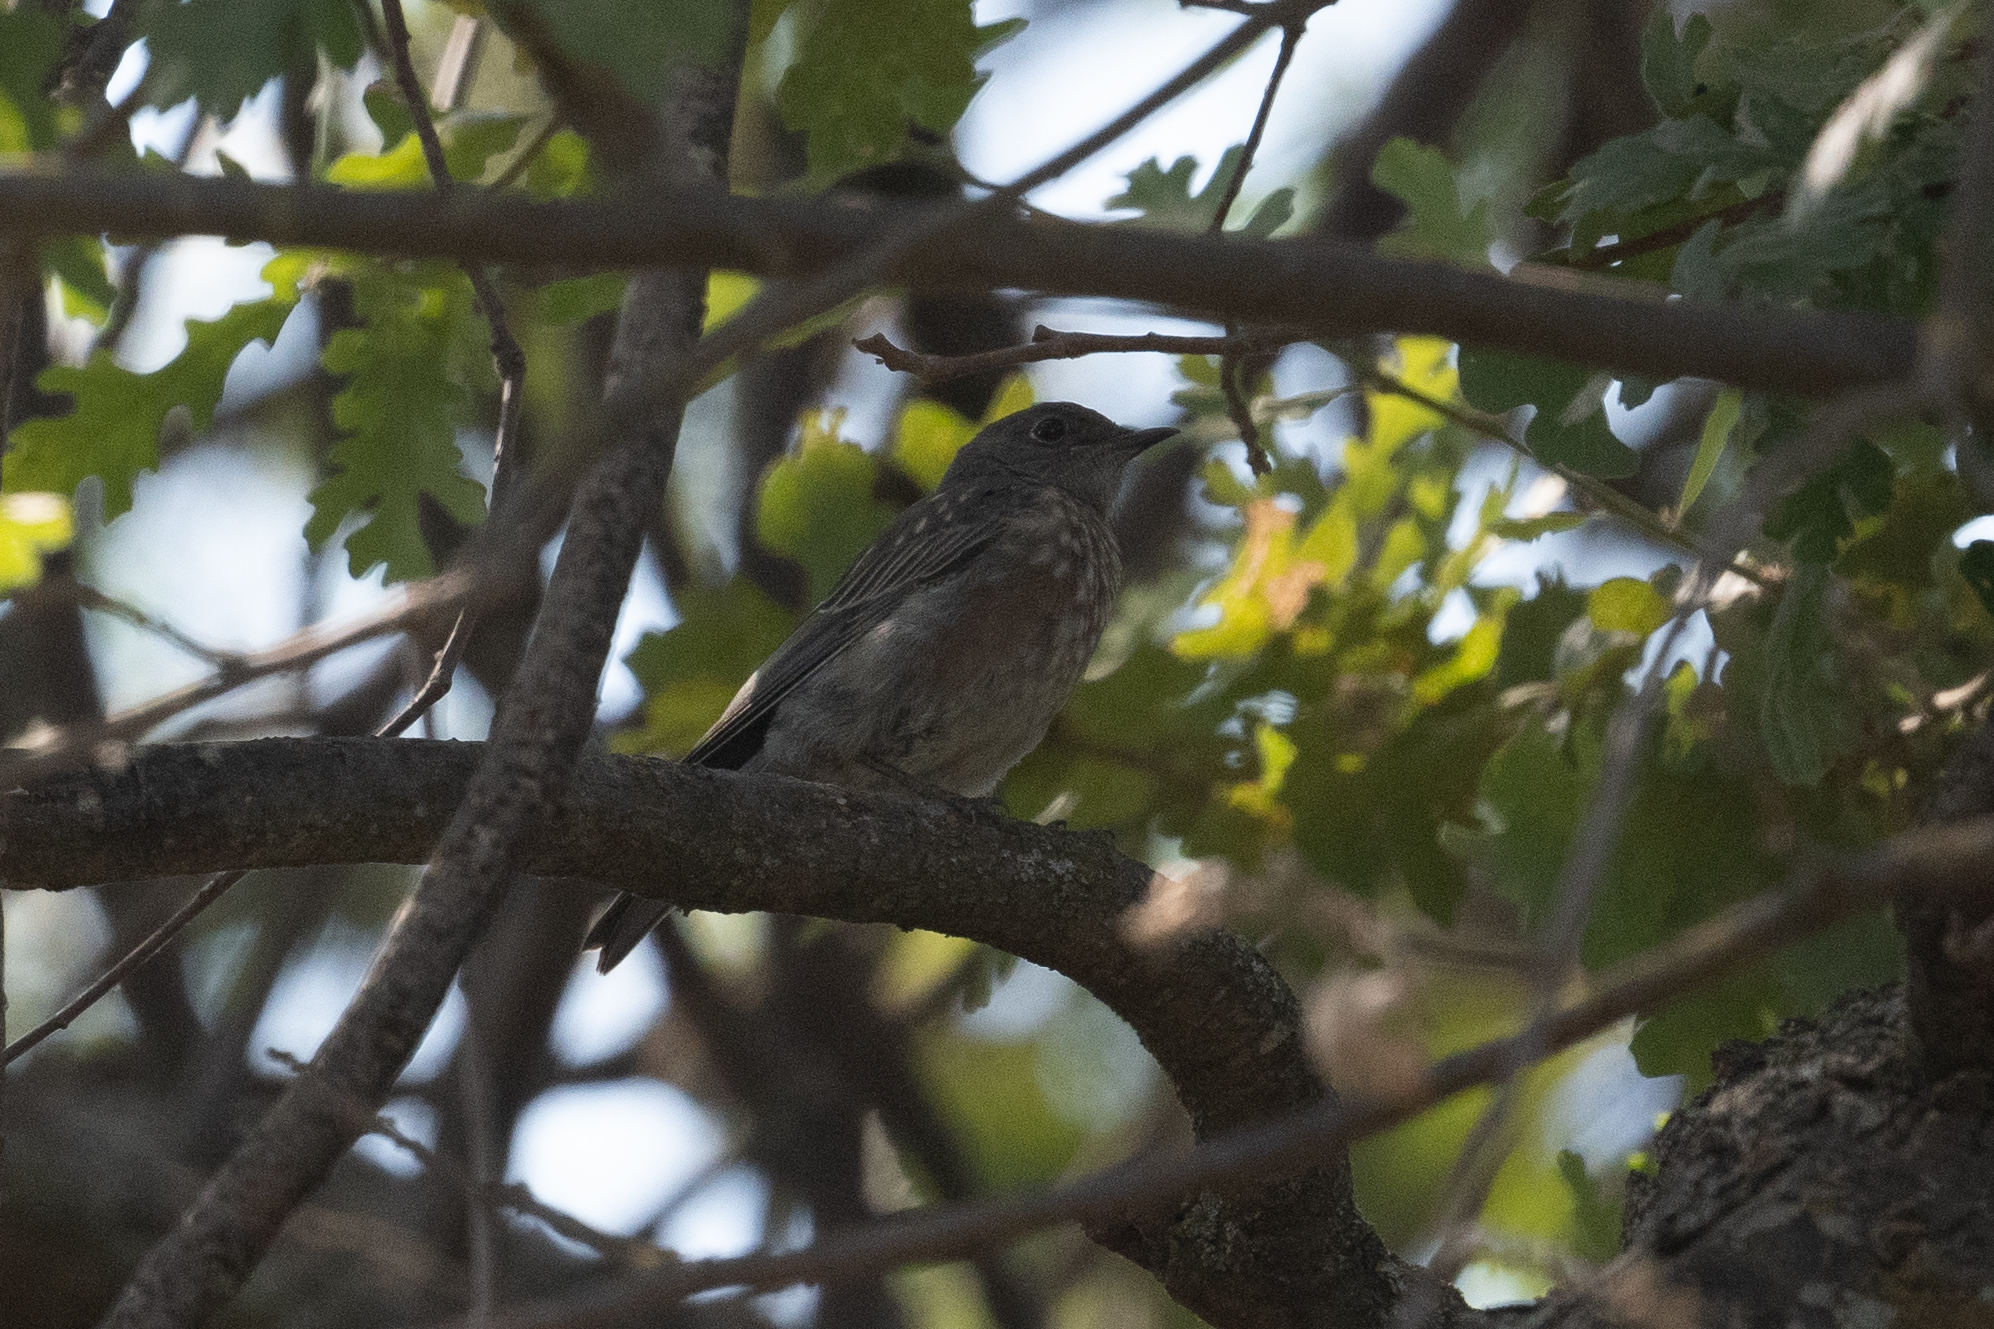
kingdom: Animalia
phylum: Chordata
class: Aves
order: Passeriformes
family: Turdidae
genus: Sialia
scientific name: Sialia mexicana
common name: Western bluebird
